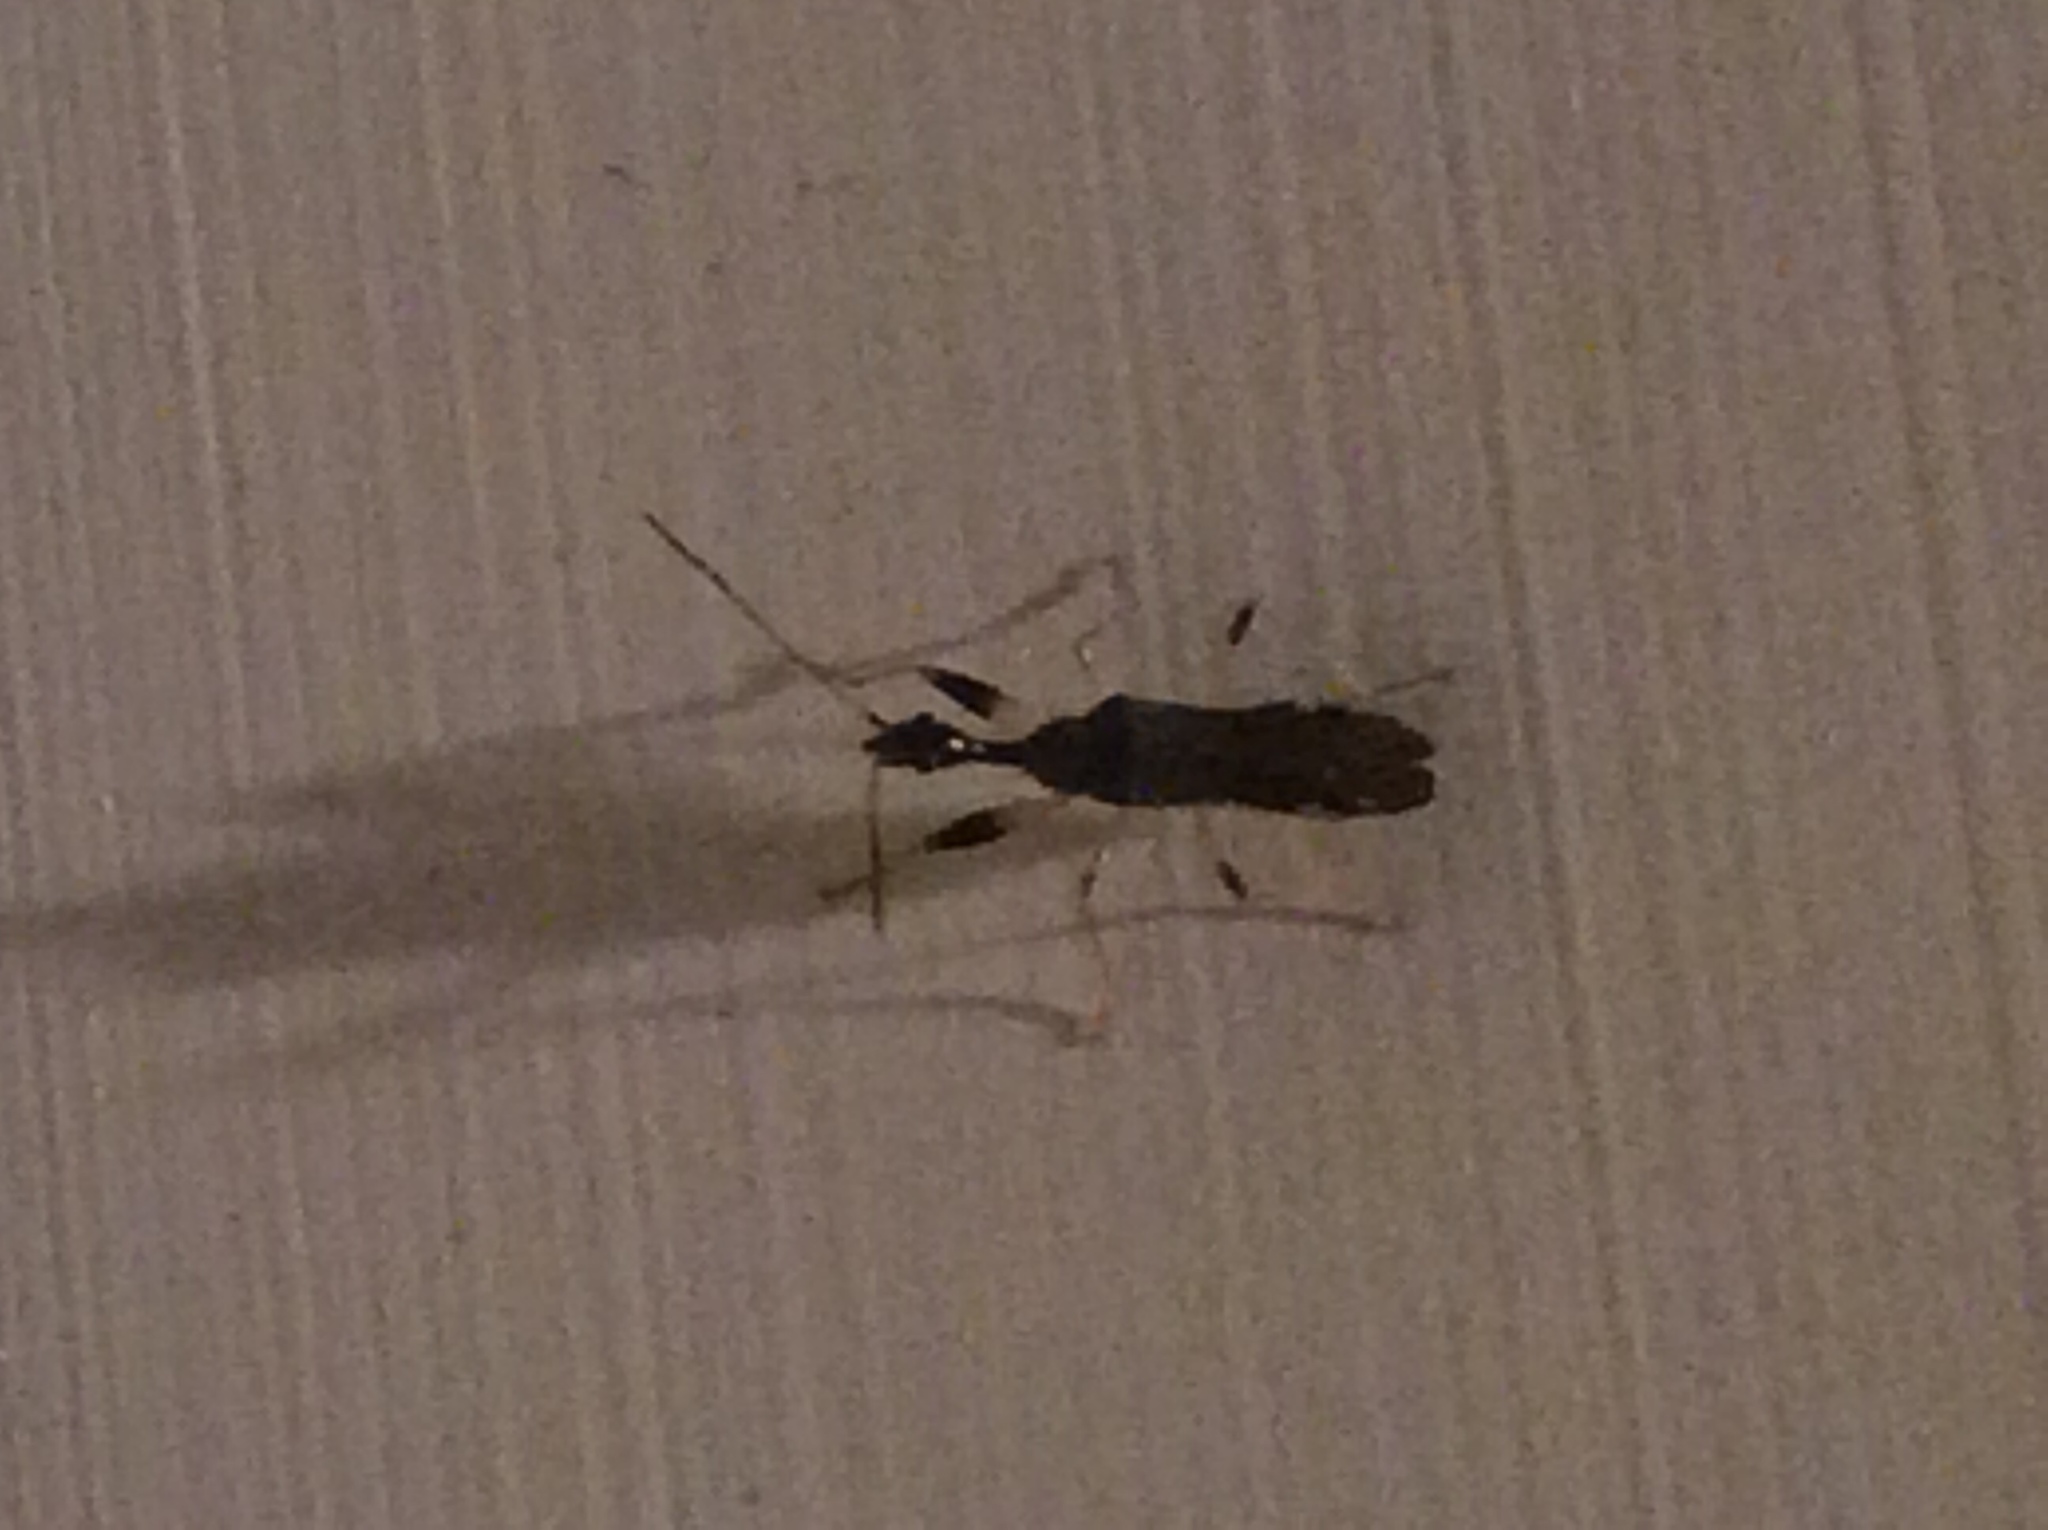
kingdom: Animalia
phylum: Arthropoda
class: Insecta
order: Hemiptera
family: Rhyparochromidae
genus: Myodocha
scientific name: Myodocha serripes
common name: Long-necked seed bug
